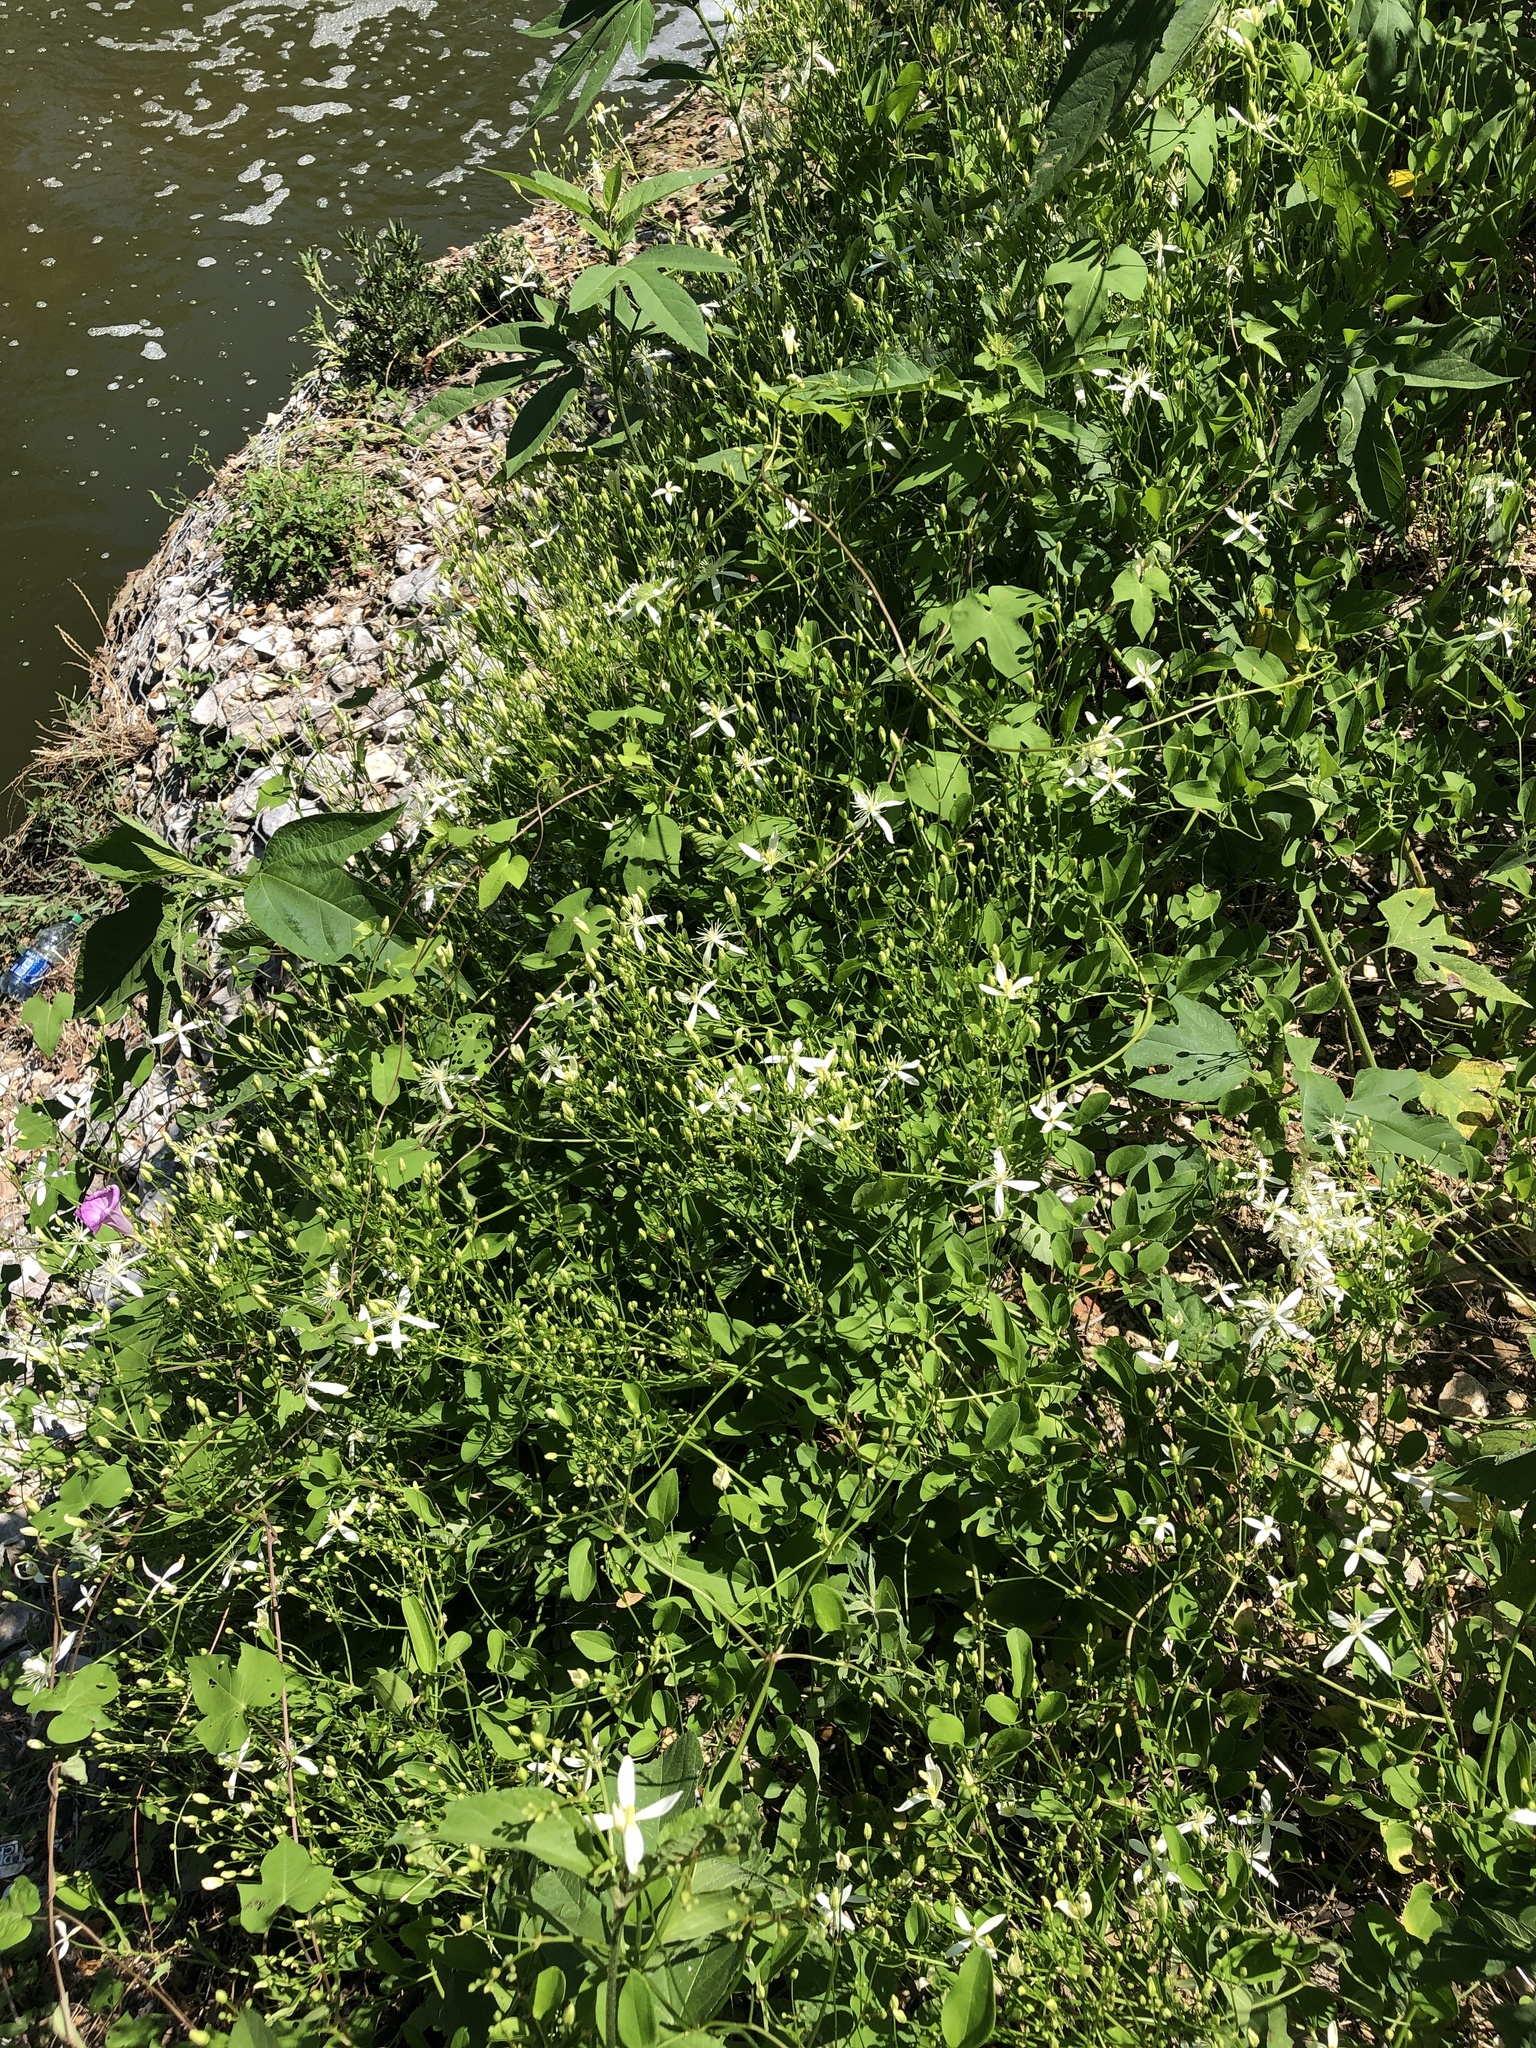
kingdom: Plantae
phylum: Tracheophyta
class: Magnoliopsida
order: Ranunculales
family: Ranunculaceae
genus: Clematis
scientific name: Clematis terniflora
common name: Sweet autumn clematis
